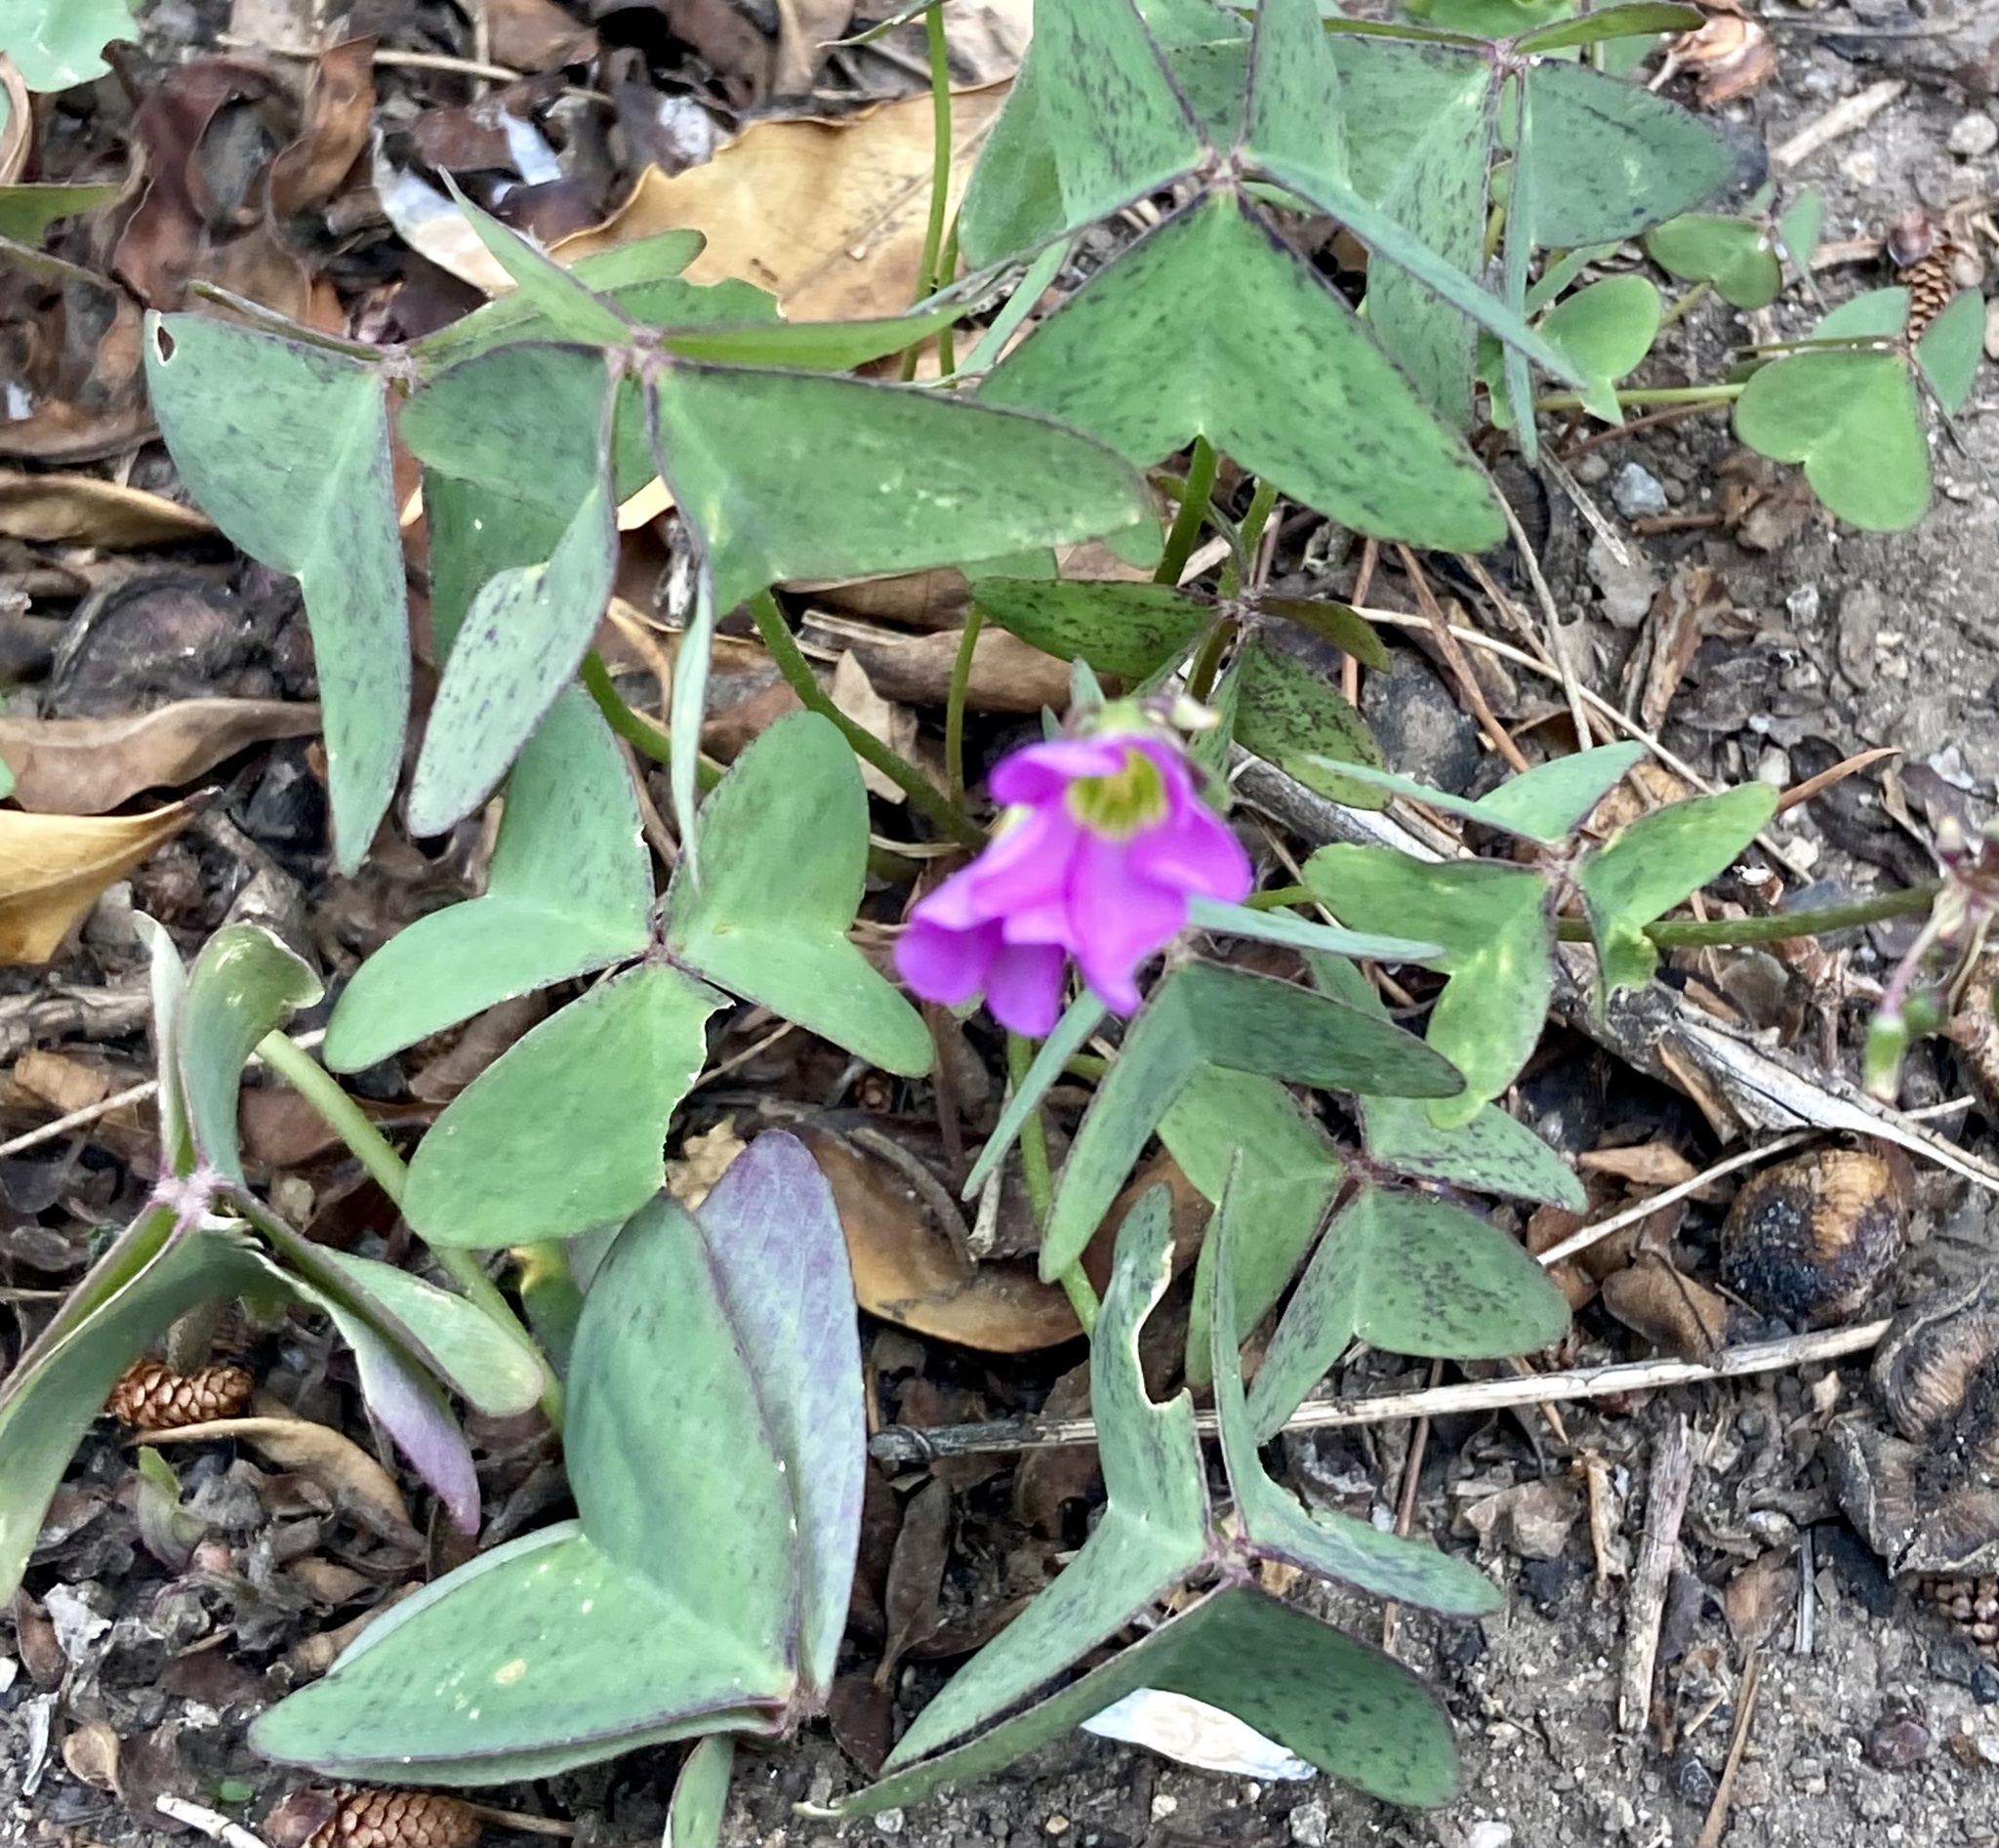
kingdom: Plantae
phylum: Tracheophyta
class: Magnoliopsida
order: Oxalidales
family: Oxalidaceae
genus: Oxalis
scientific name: Oxalis latifolia
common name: Garden pink-sorrel
